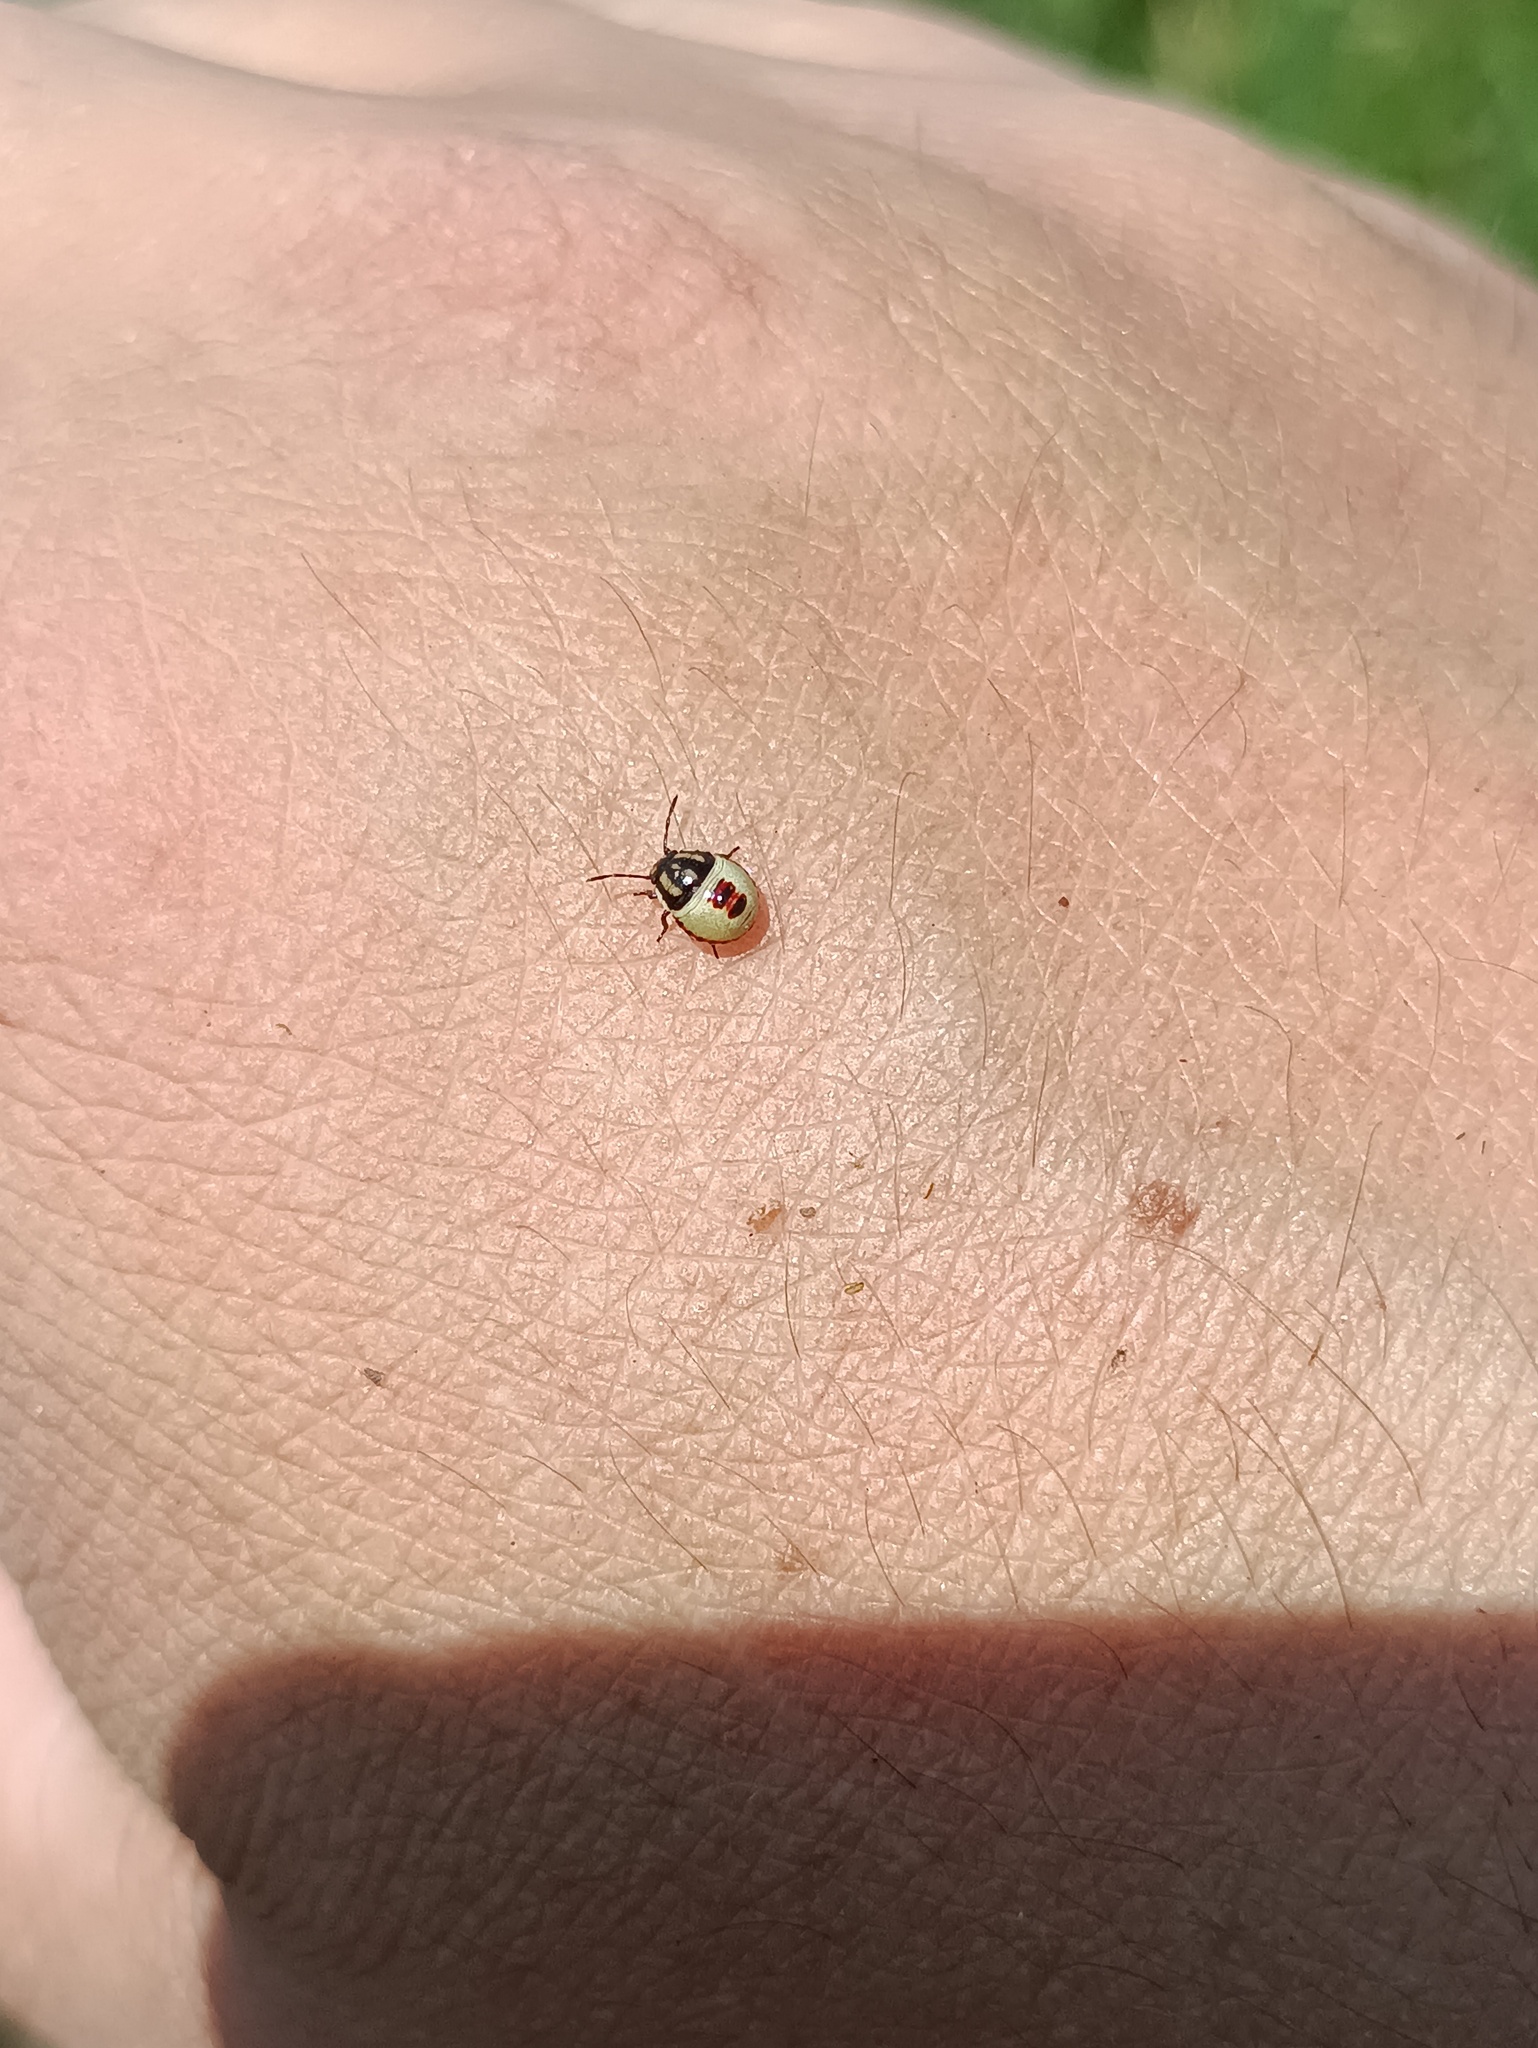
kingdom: Animalia
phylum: Arthropoda
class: Insecta
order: Hemiptera
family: Pentatomidae
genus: Piezodorus
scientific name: Piezodorus lituratus
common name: Stink bug
